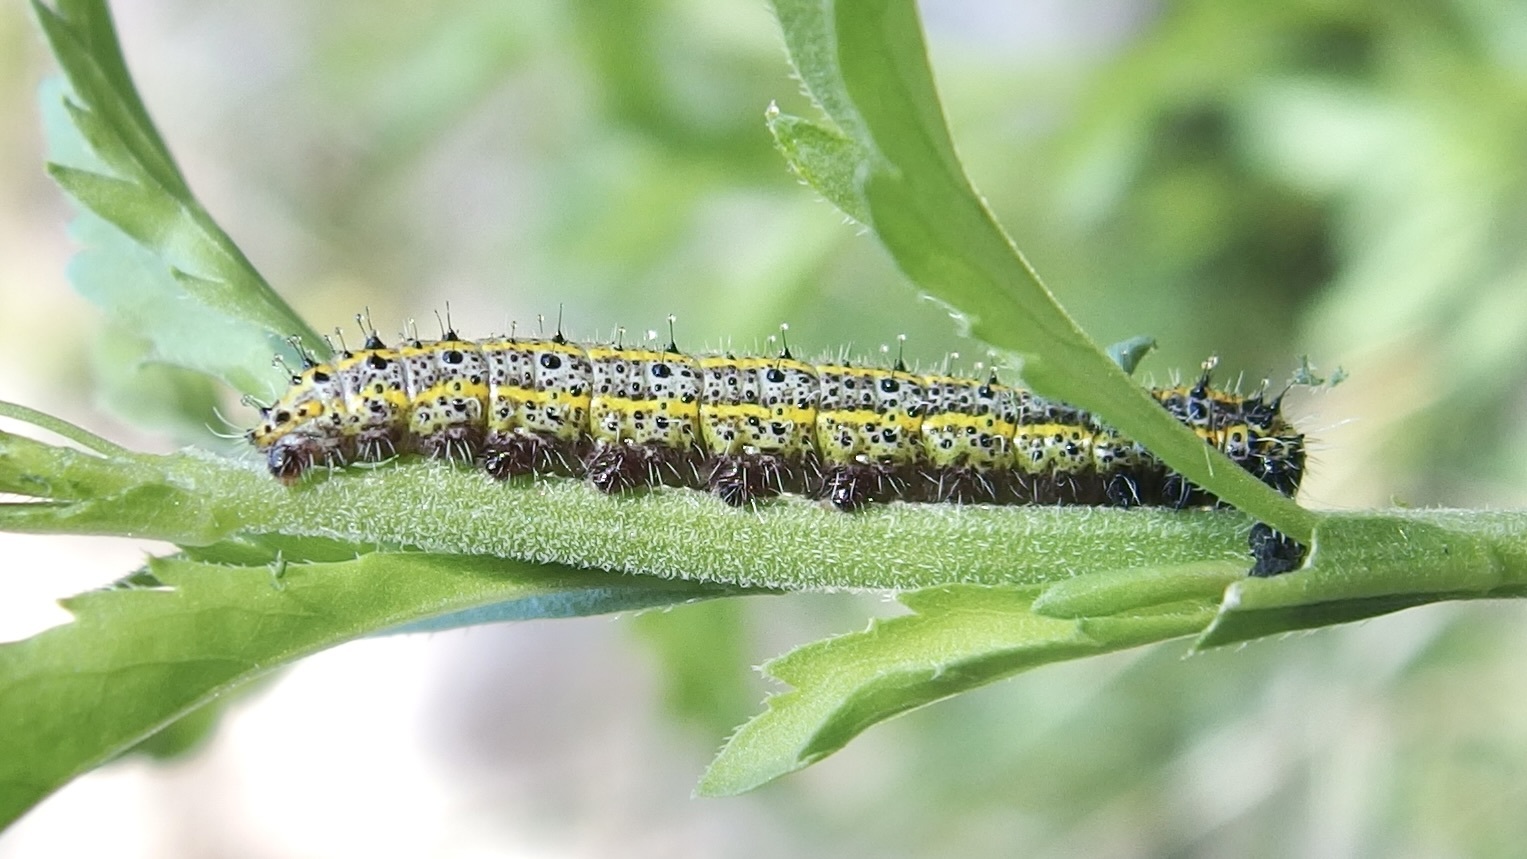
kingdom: Animalia
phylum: Arthropoda
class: Insecta
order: Lepidoptera
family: Pieridae
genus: Ascia
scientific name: Ascia monuste
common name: Great southern white
